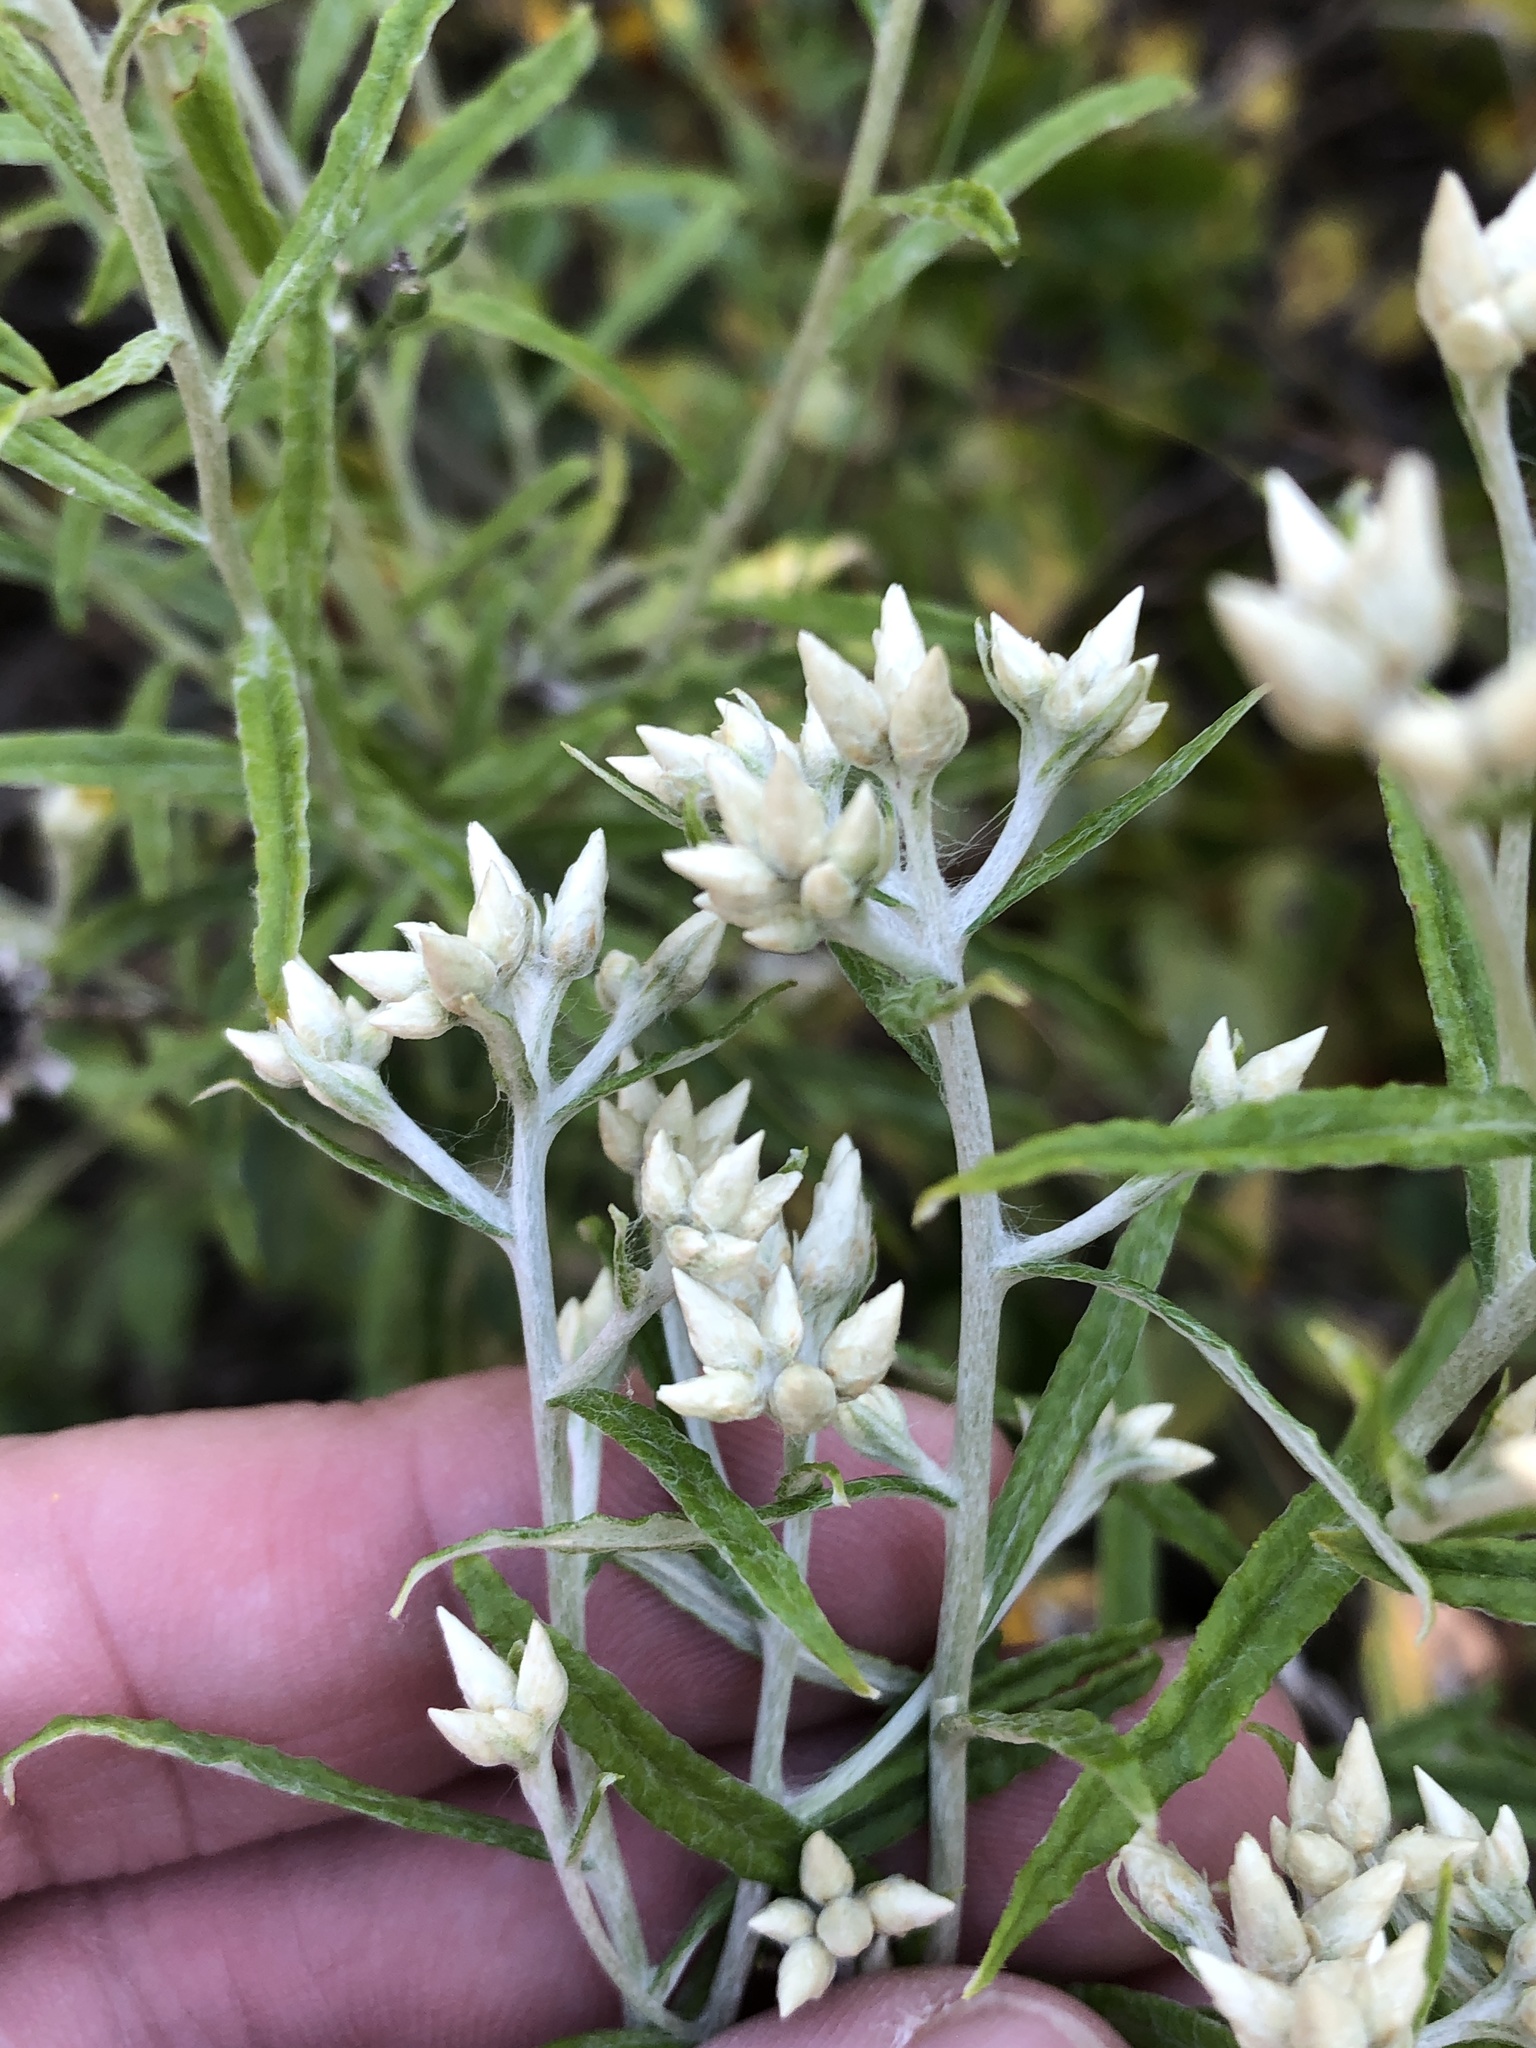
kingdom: Plantae
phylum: Tracheophyta
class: Magnoliopsida
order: Asterales
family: Asteraceae
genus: Pseudognaphalium
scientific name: Pseudognaphalium obtusifolium
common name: Eastern rabbit-tobacco
